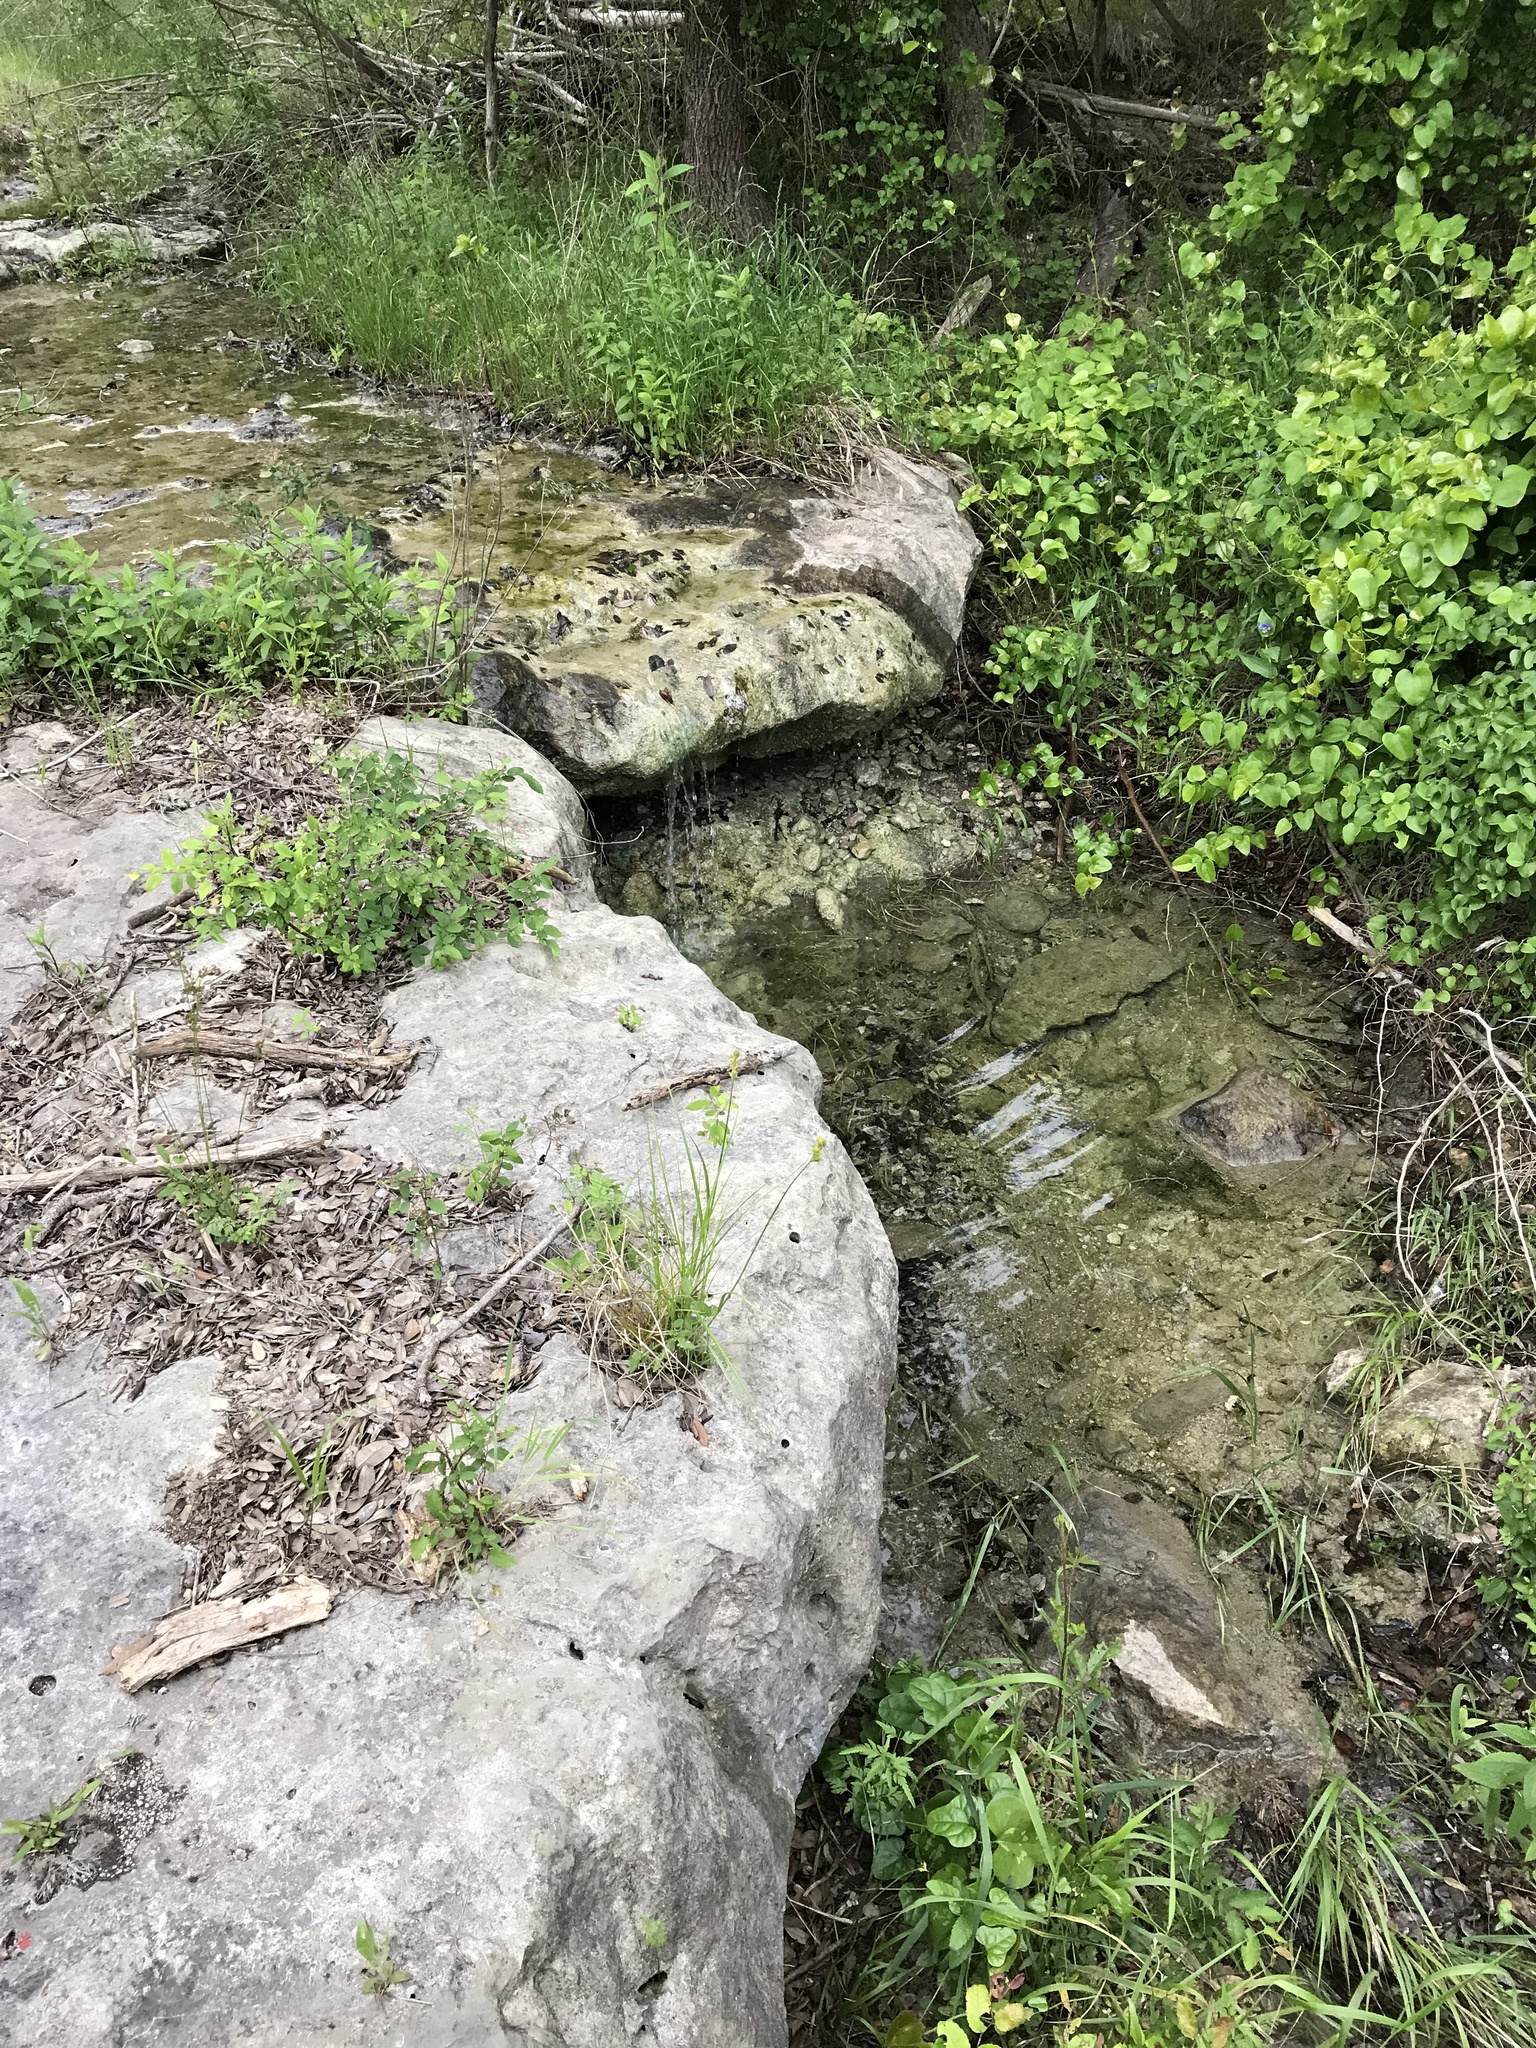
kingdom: Plantae
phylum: Tracheophyta
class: Liliopsida
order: Commelinales
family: Commelinaceae
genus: Tinantia
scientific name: Tinantia anomala
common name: False dayflower
